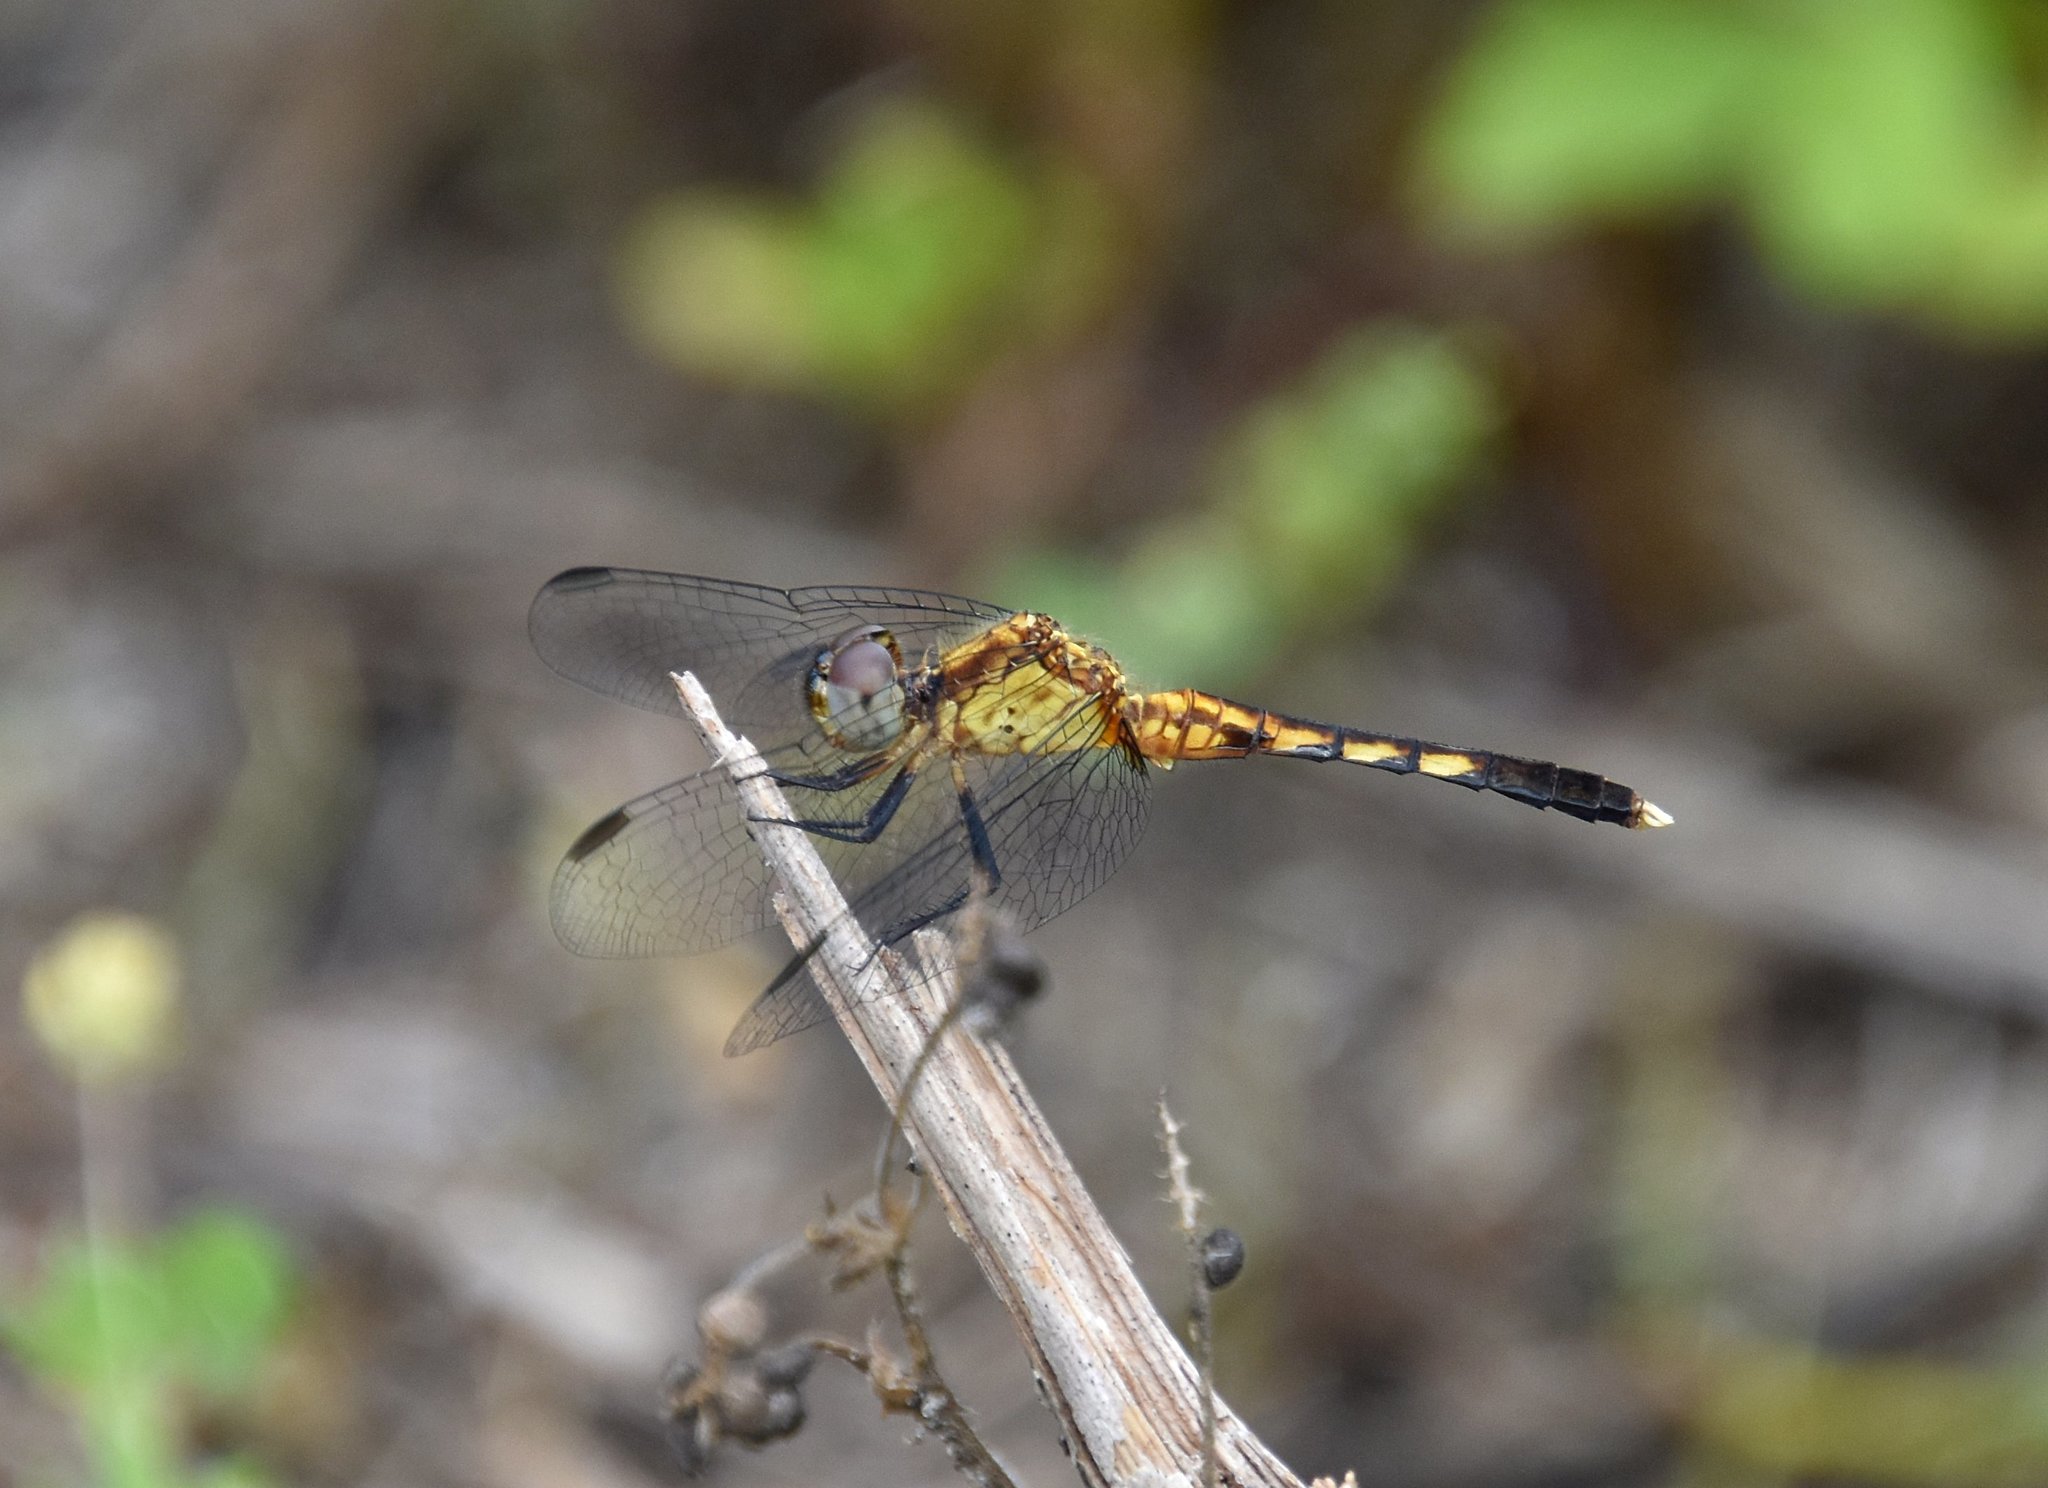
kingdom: Animalia
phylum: Arthropoda
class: Insecta
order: Odonata
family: Libellulidae
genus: Erythrodiplax
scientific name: Erythrodiplax minuscula
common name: Little blue dragonlet
